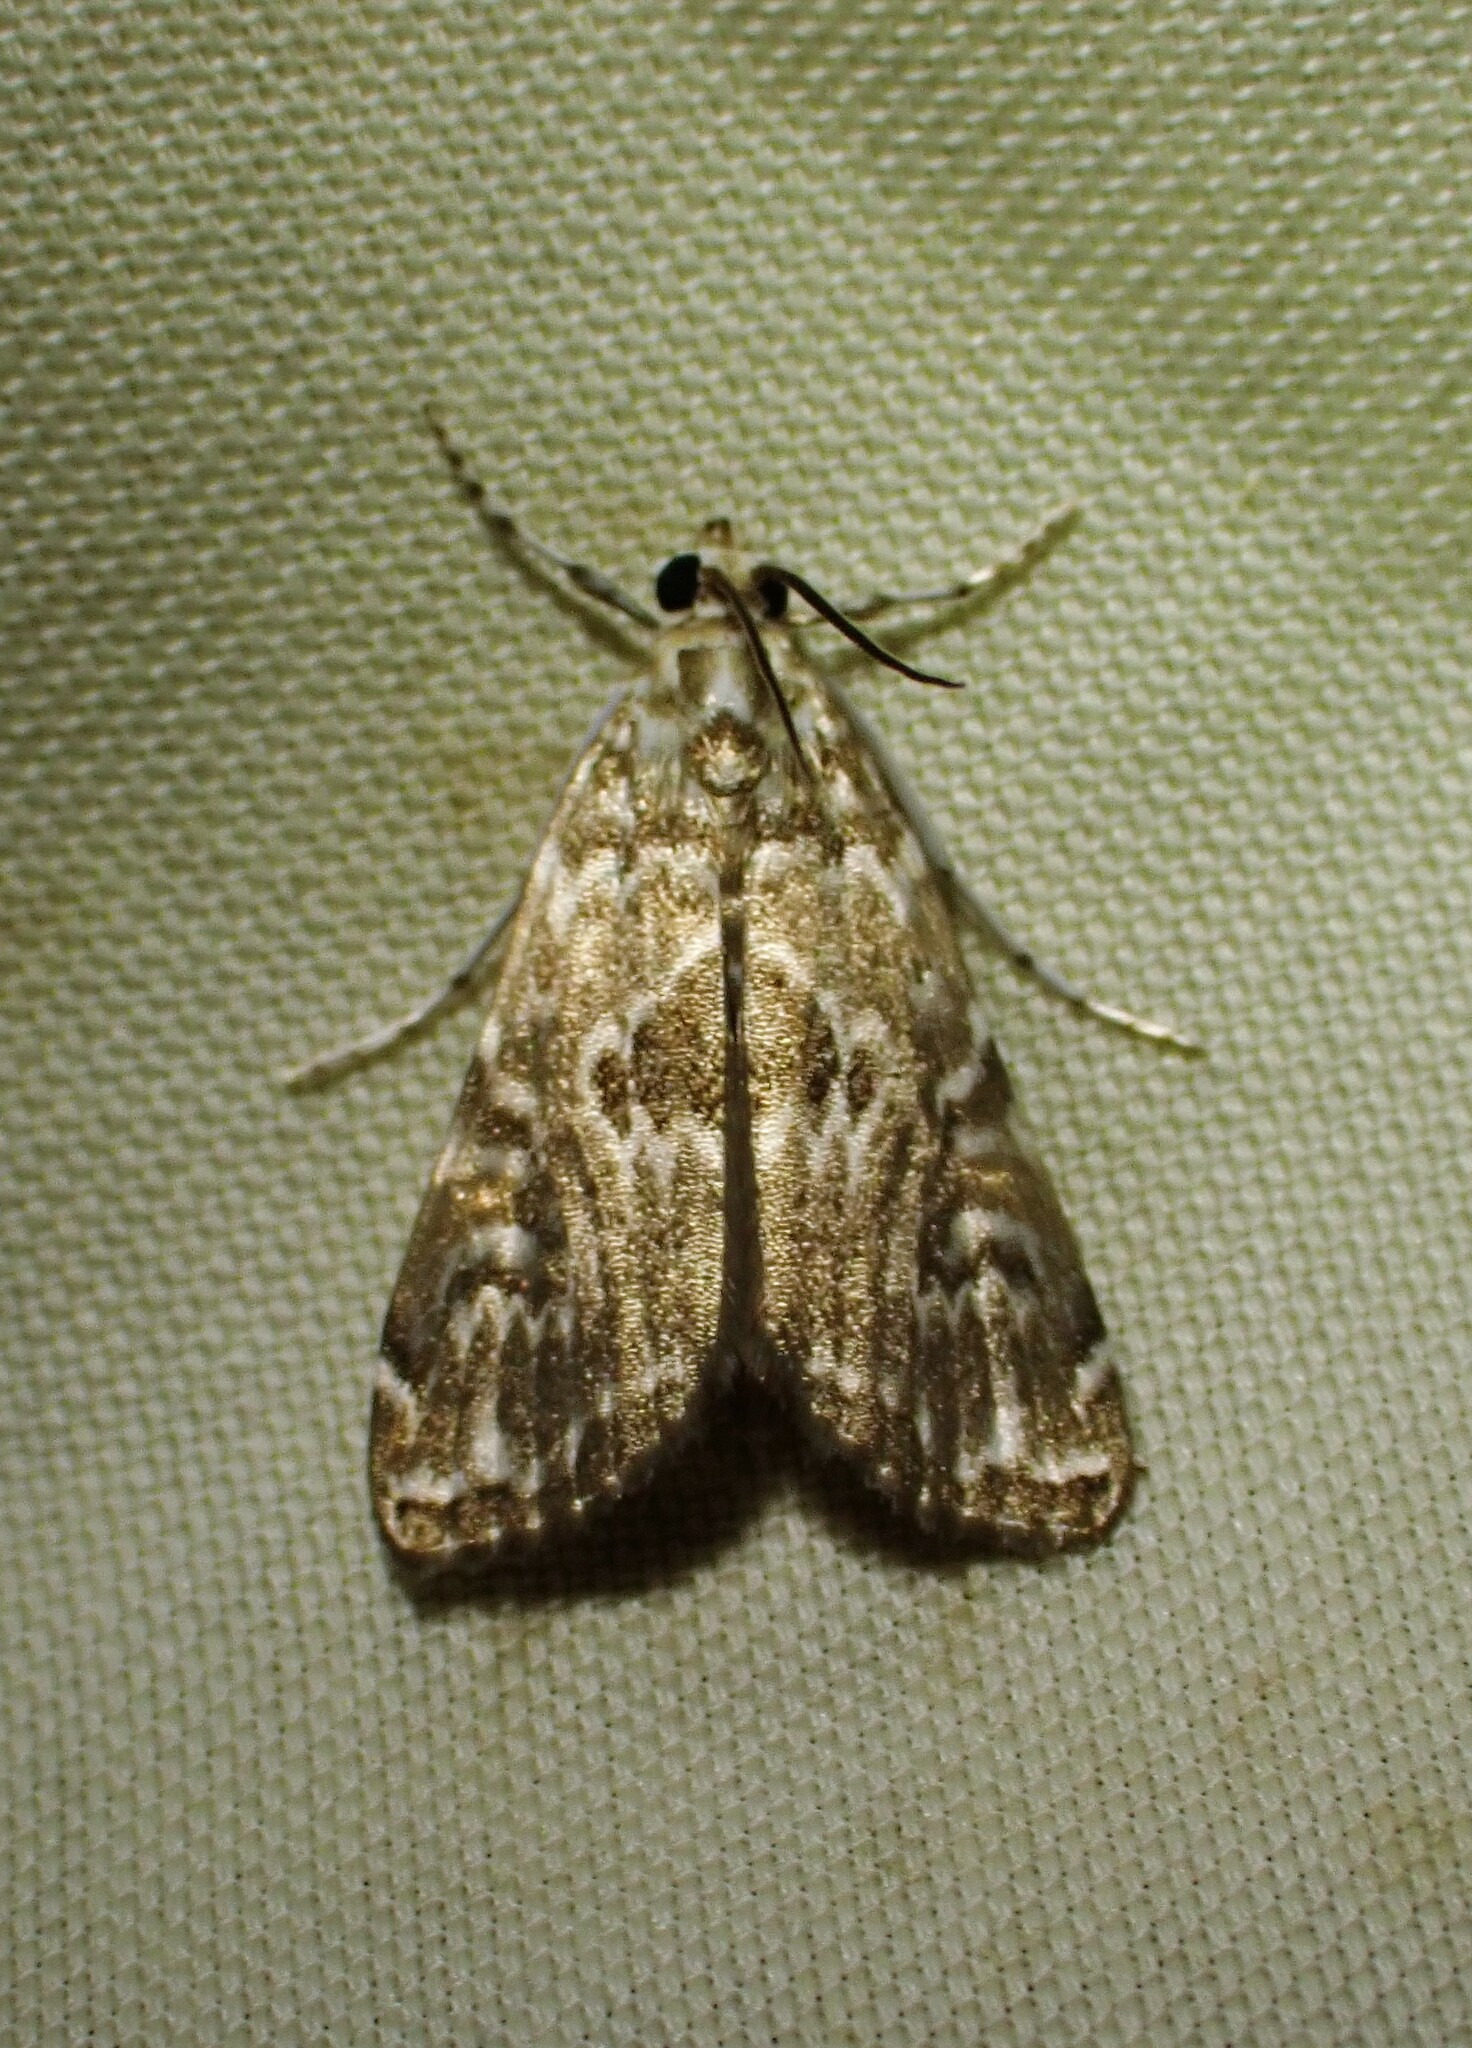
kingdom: Animalia
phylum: Arthropoda
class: Insecta
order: Lepidoptera
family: Crambidae
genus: Elophila
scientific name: Elophila gyralis
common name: Waterlily borer moth
